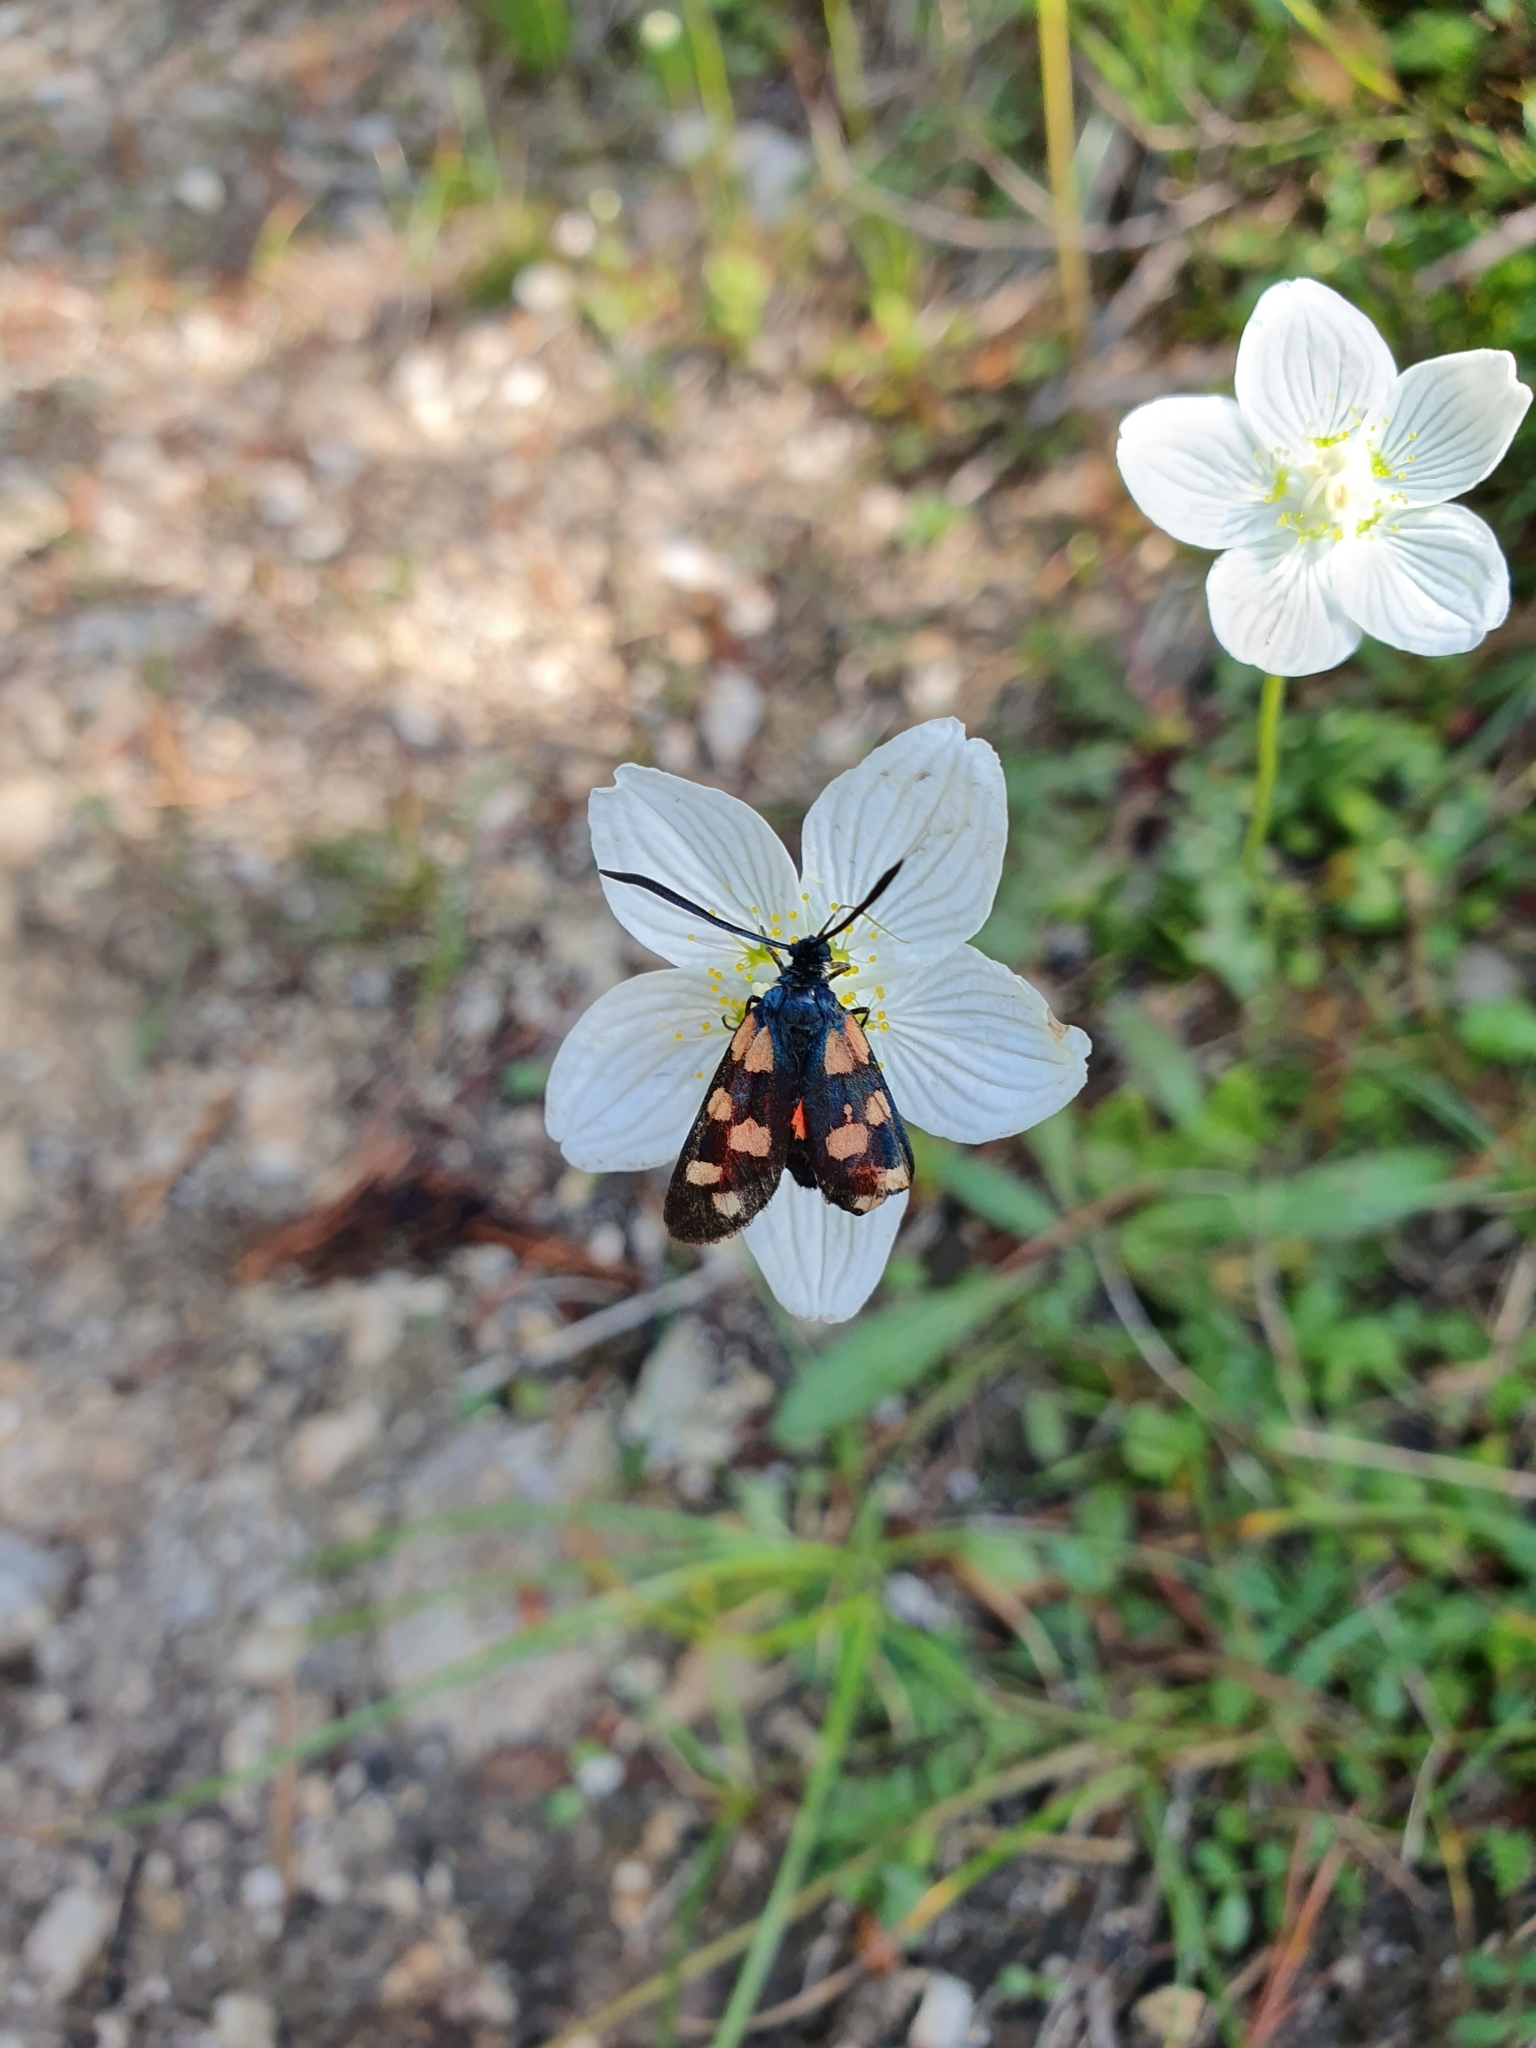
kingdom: Animalia
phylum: Arthropoda
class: Insecta
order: Lepidoptera
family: Zygaenidae
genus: Zygaena
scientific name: Zygaena filipendulae
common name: Six-spot burnet
